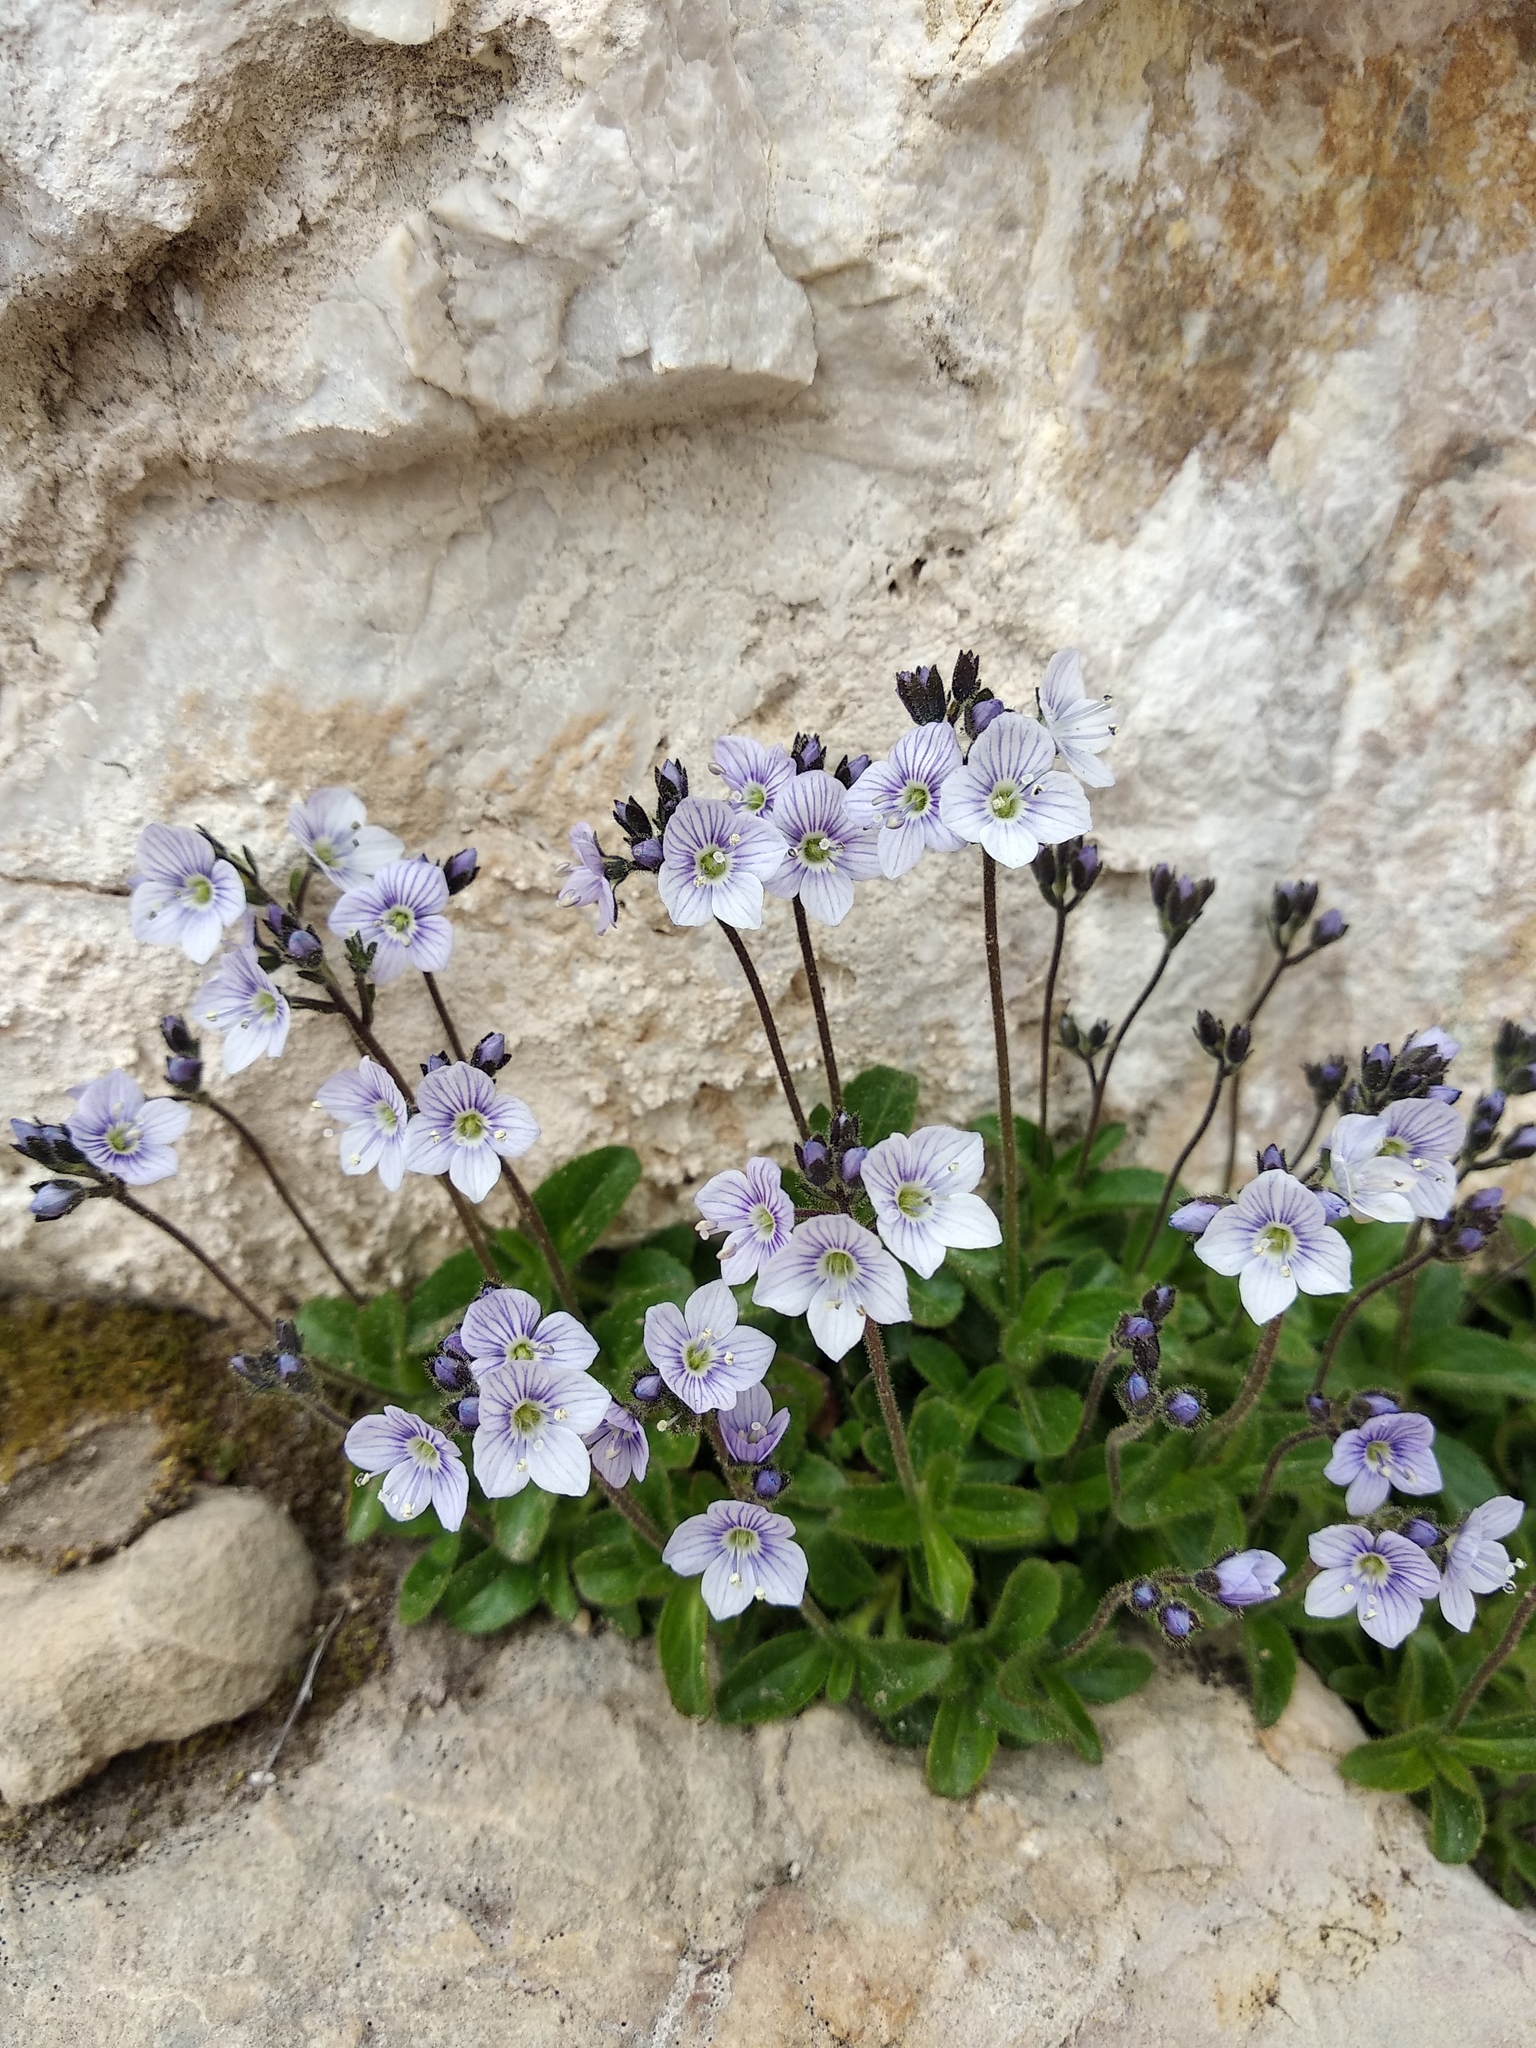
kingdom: Plantae
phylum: Tracheophyta
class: Magnoliopsida
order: Lamiales
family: Plantaginaceae
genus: Veronica
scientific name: Veronica aphylla
